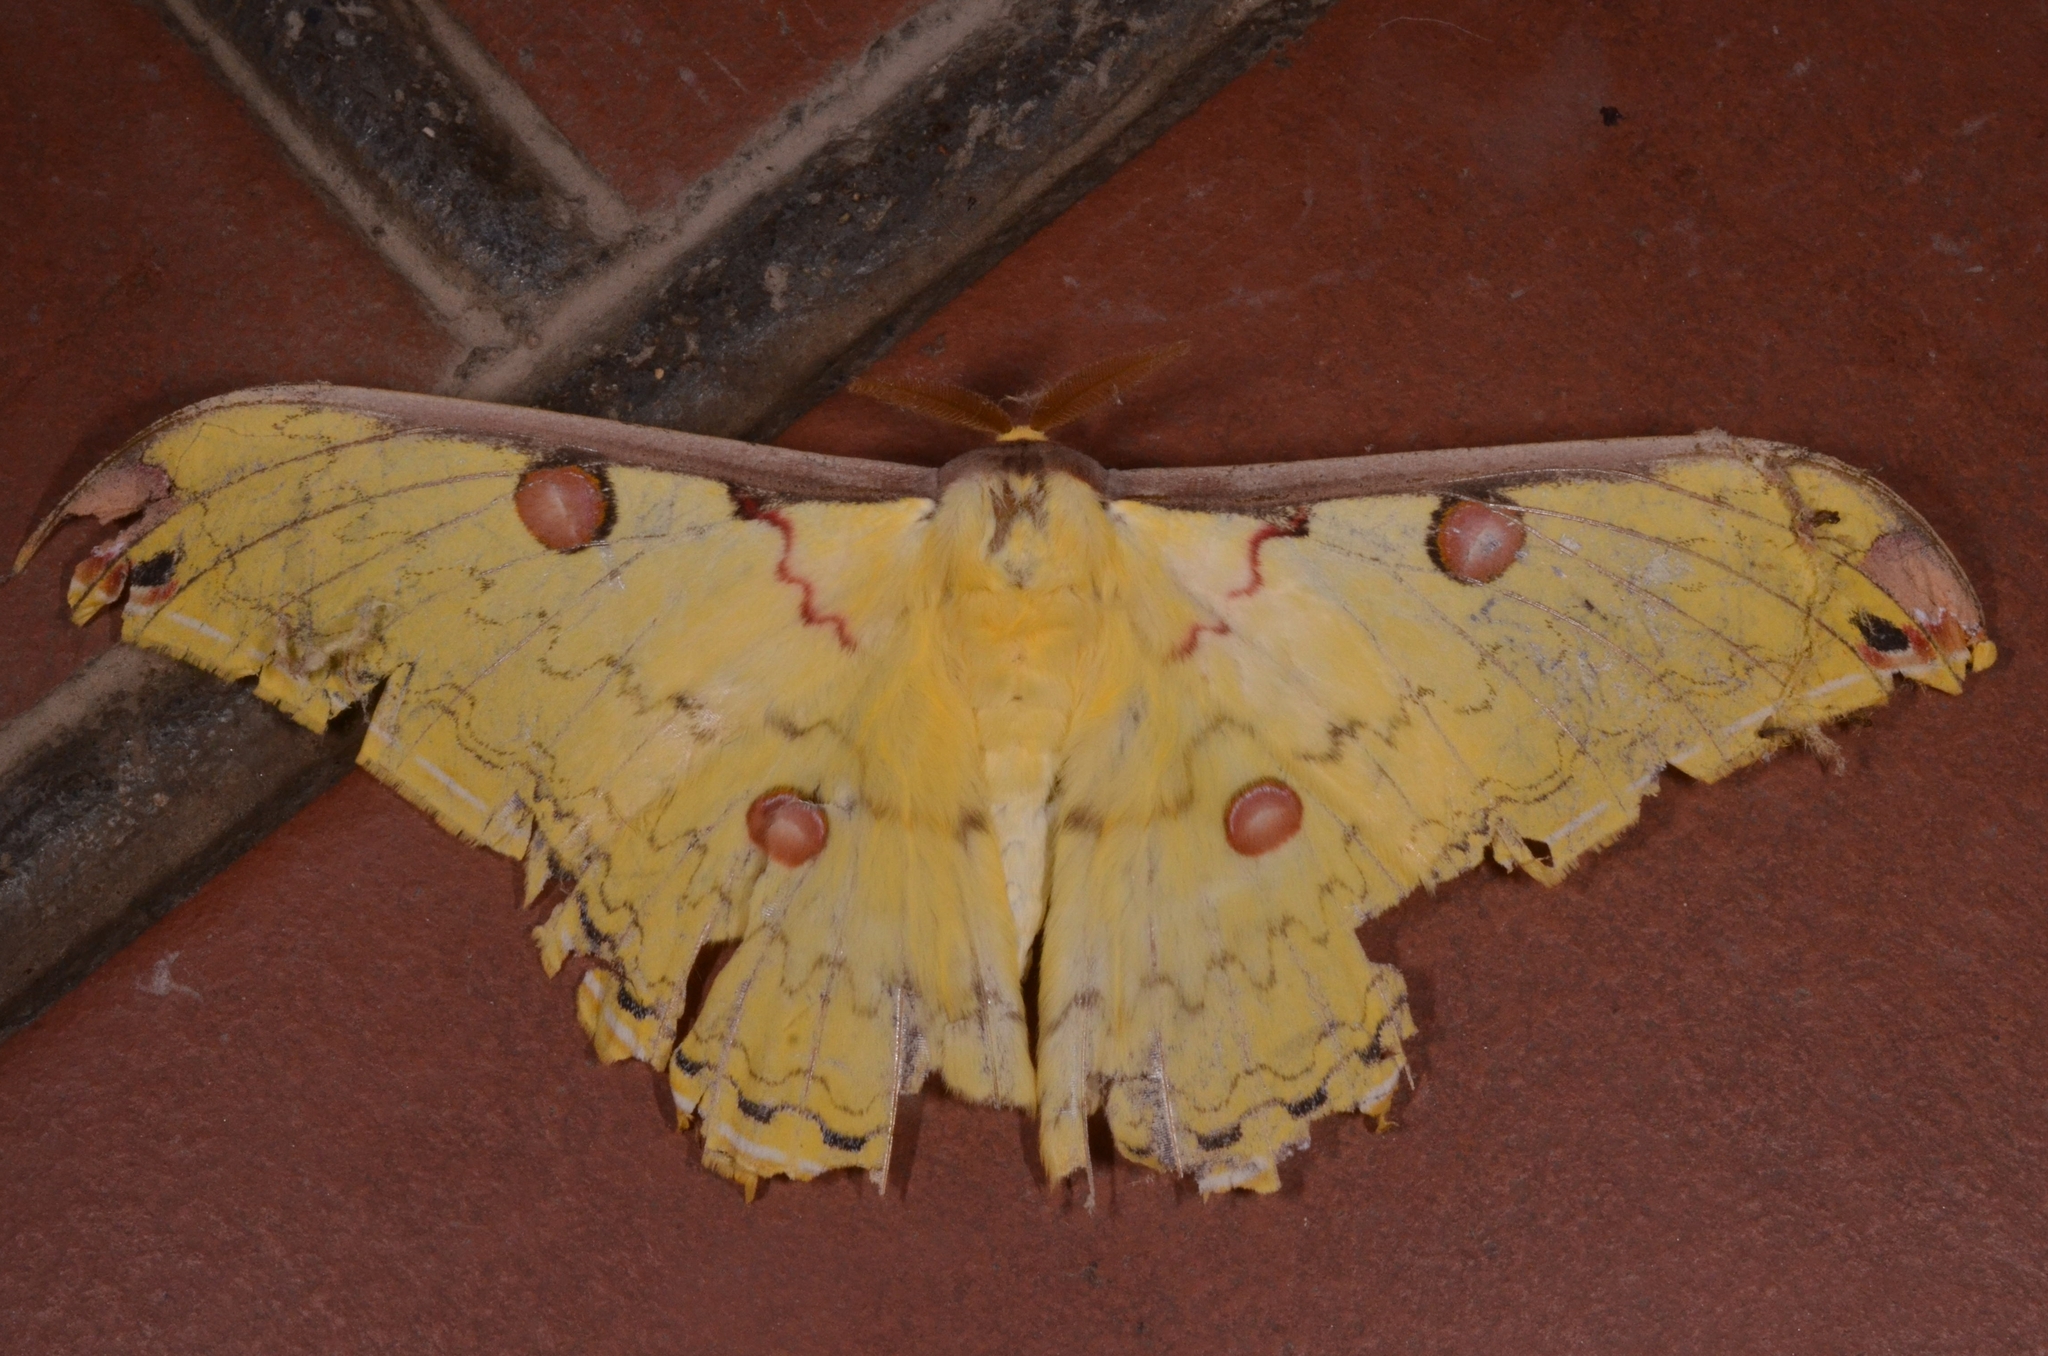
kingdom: Animalia
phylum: Arthropoda
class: Insecta
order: Lepidoptera
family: Saturniidae
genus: Loepa
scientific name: Loepa miranda
